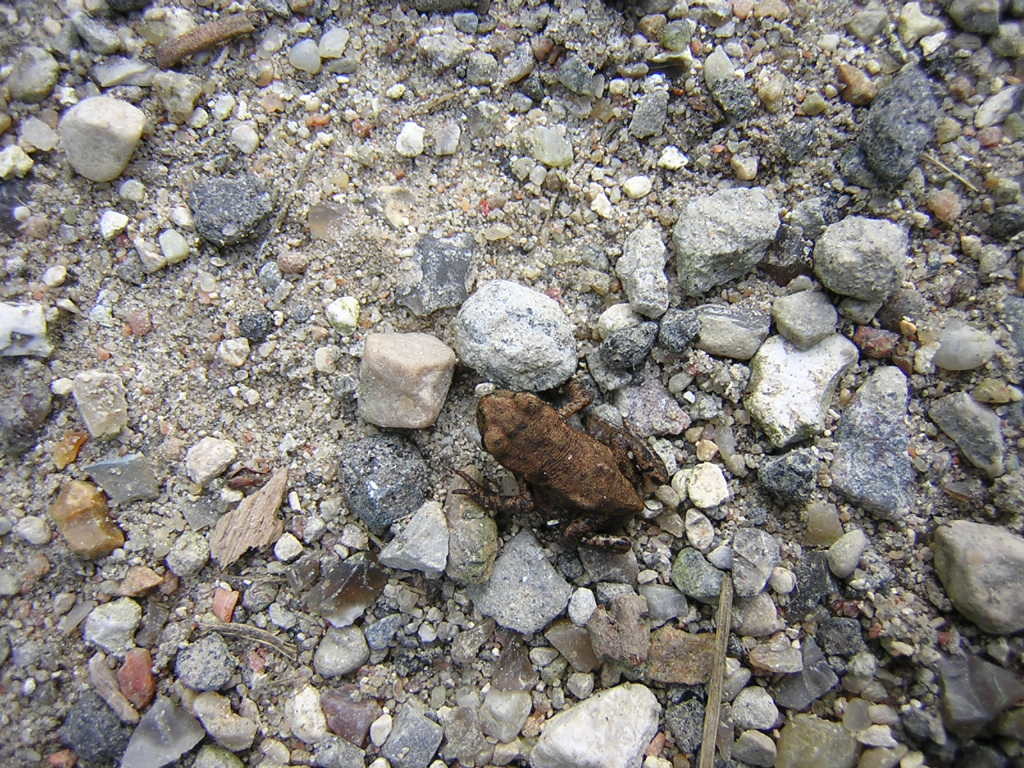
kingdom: Animalia
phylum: Chordata
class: Amphibia
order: Anura
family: Bufonidae
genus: Bufo
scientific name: Bufo bufo
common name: Common toad
